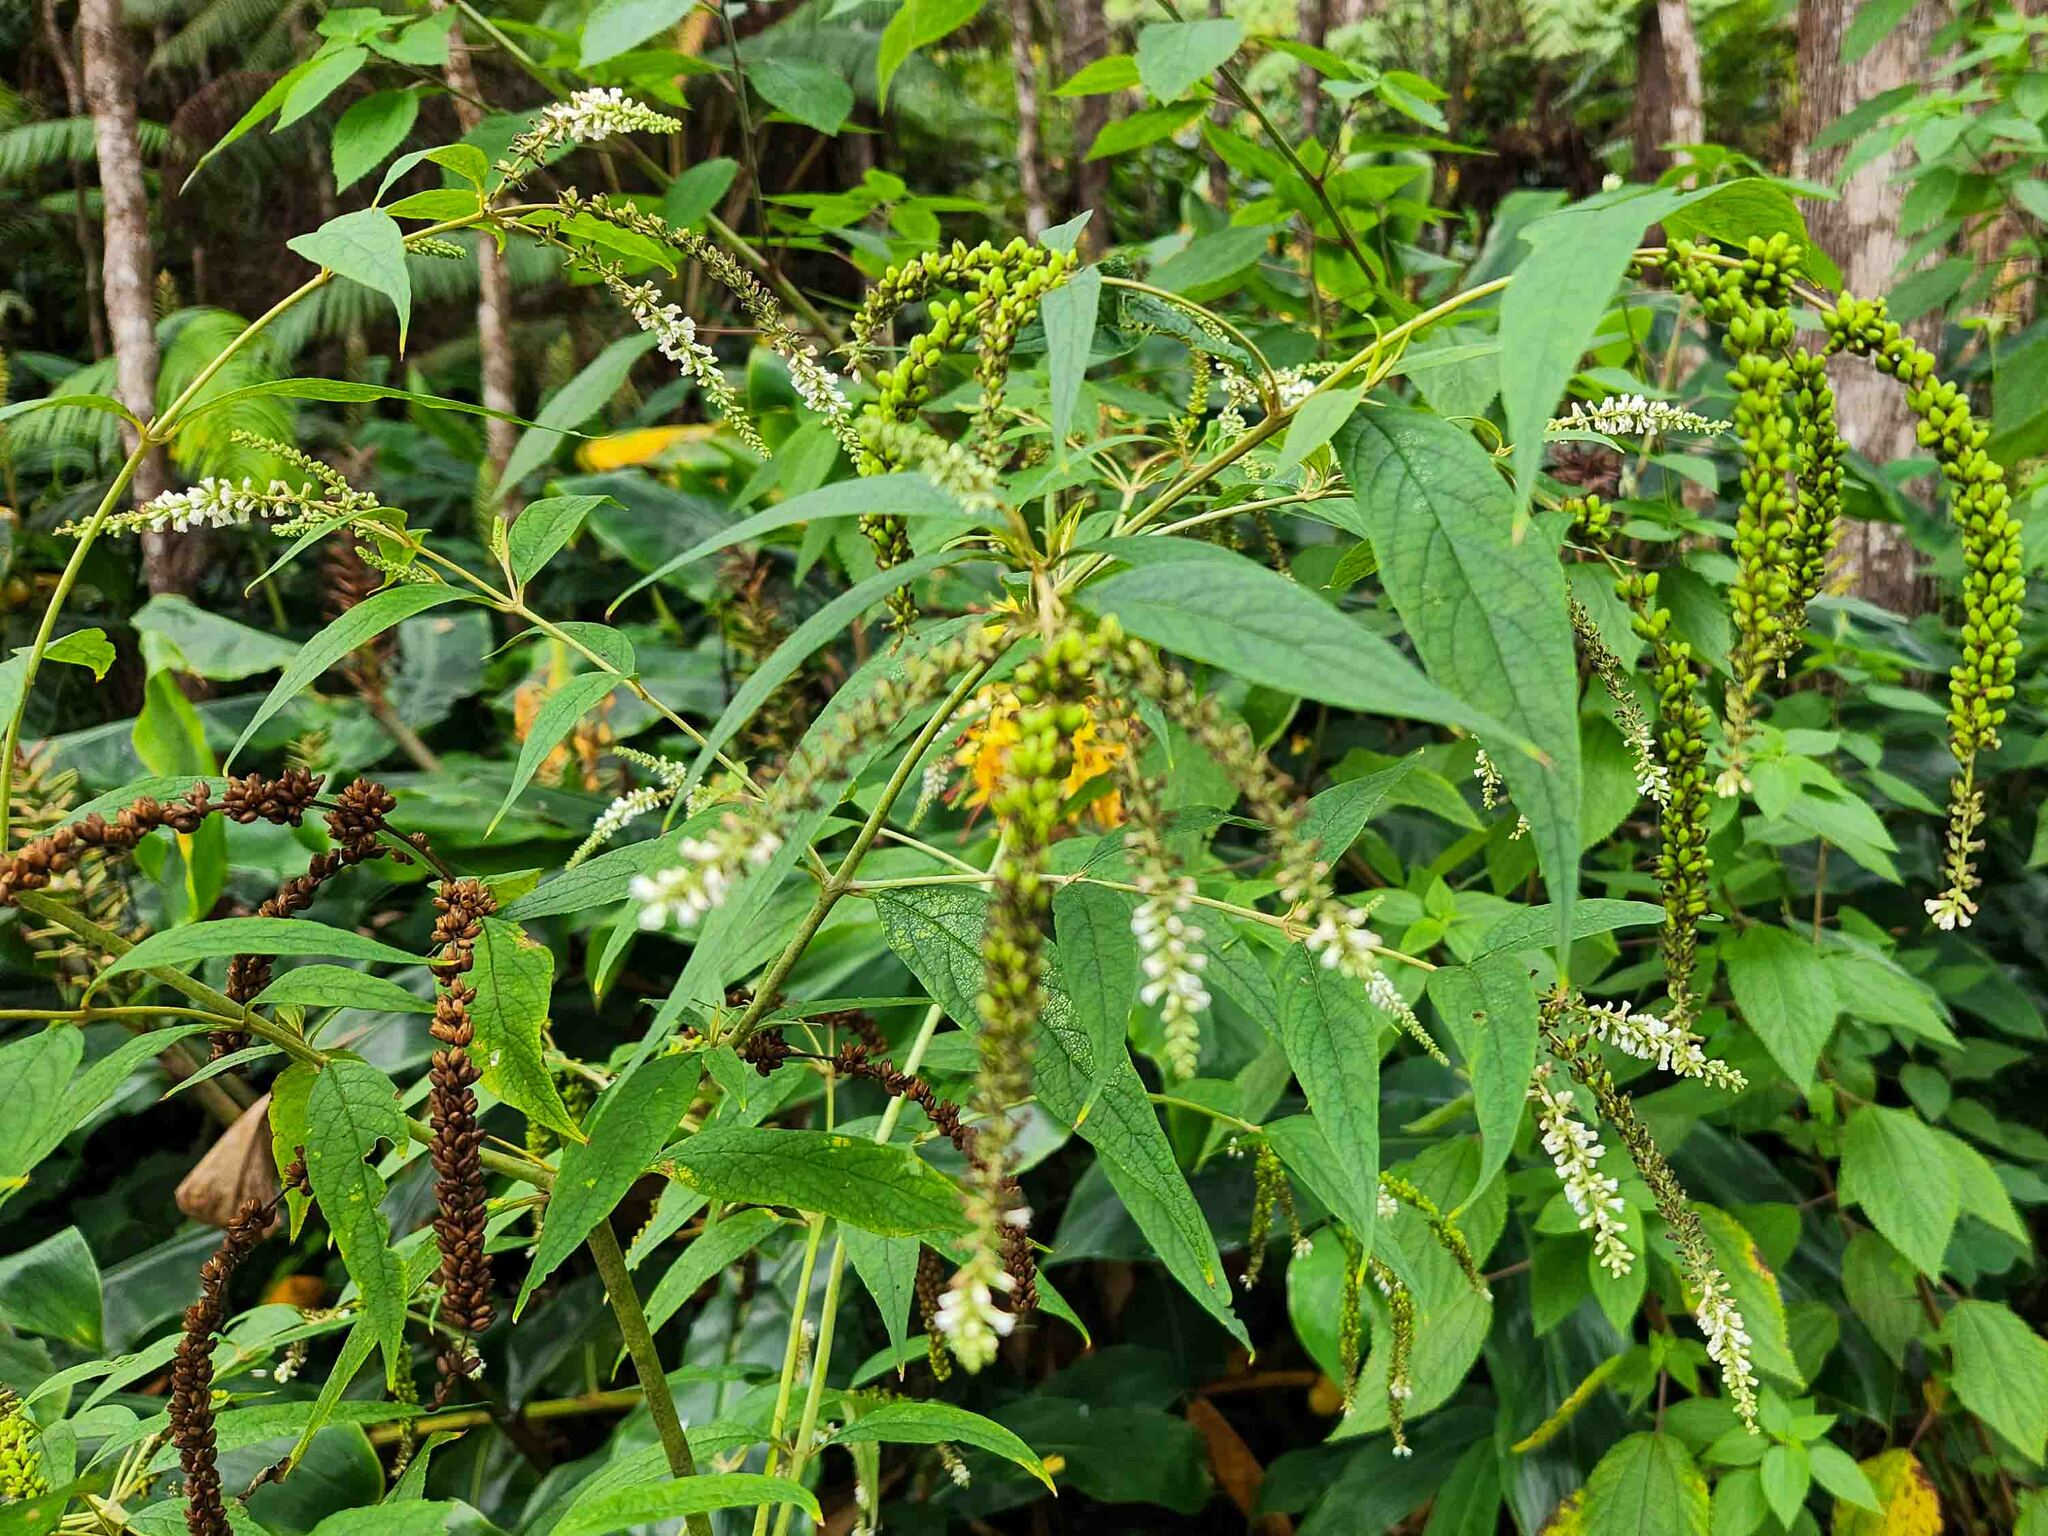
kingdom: Plantae
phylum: Tracheophyta
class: Magnoliopsida
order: Lamiales
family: Scrophulariaceae
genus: Buddleja
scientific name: Buddleja asiatica
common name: Dog tail
